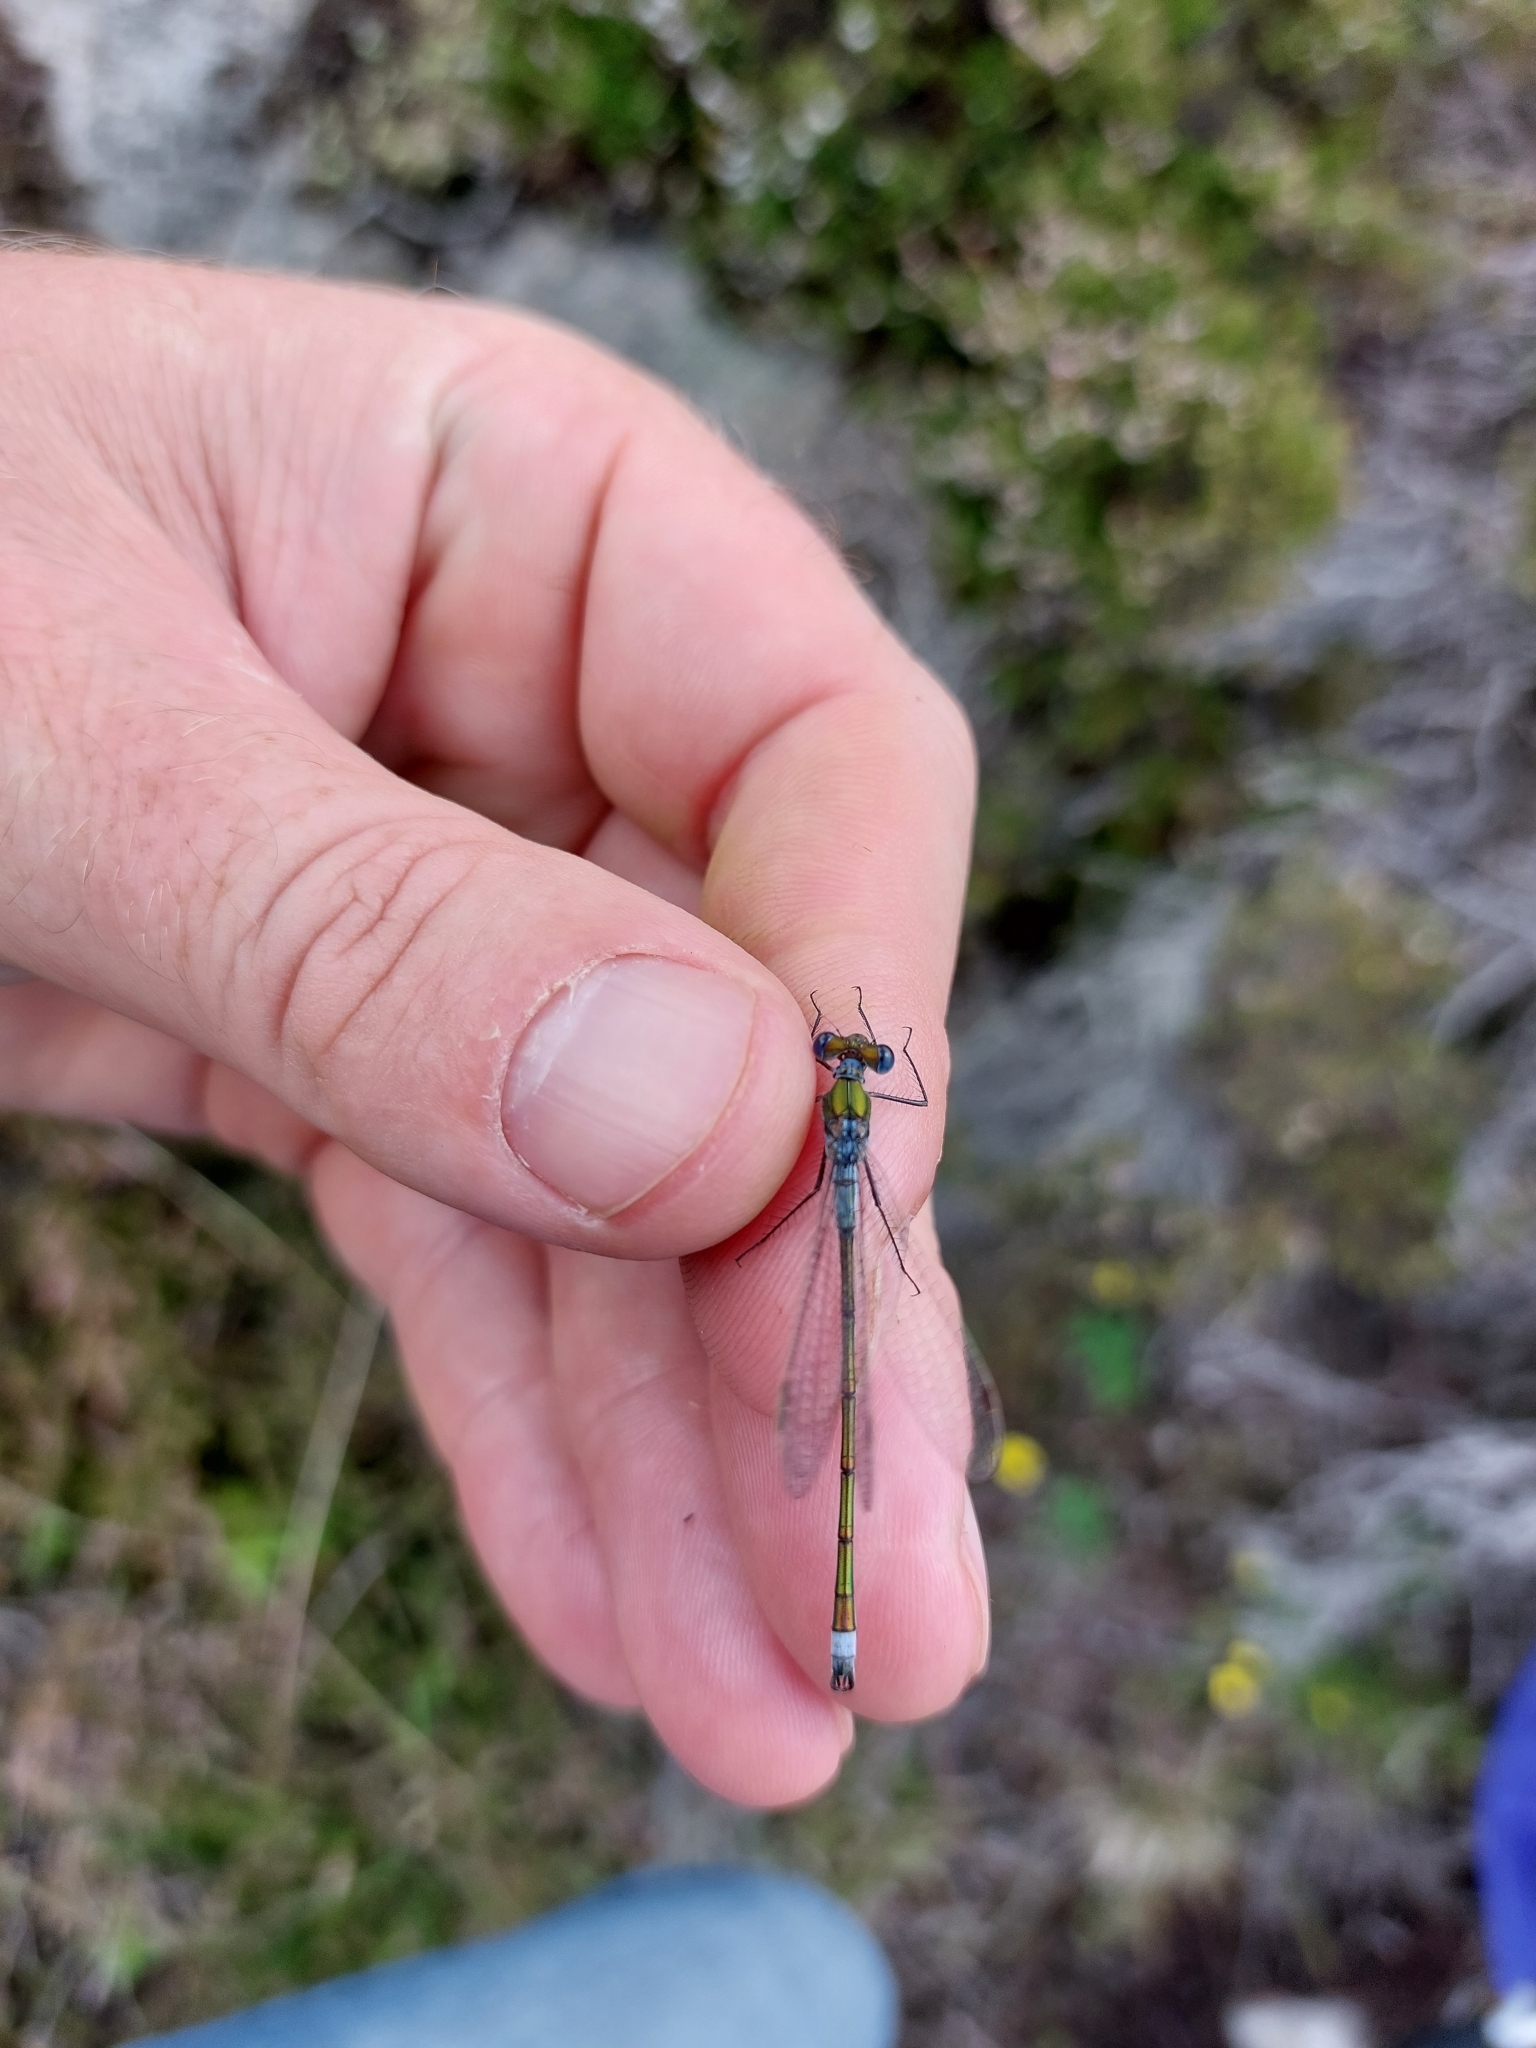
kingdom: Animalia
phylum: Arthropoda
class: Insecta
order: Odonata
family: Lestidae
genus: Lestes
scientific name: Lestes sponsa
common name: Common spreadwing
